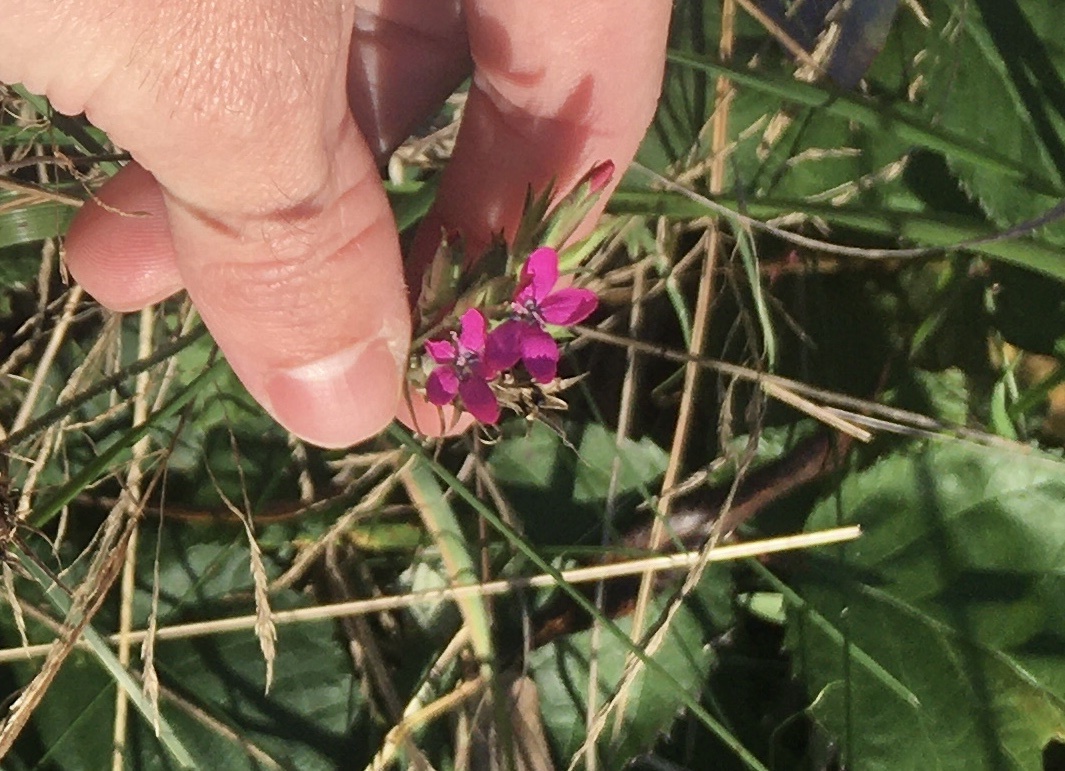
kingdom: Plantae
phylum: Tracheophyta
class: Magnoliopsida
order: Caryophyllales
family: Caryophyllaceae
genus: Dianthus
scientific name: Dianthus armeria
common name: Deptford pink
